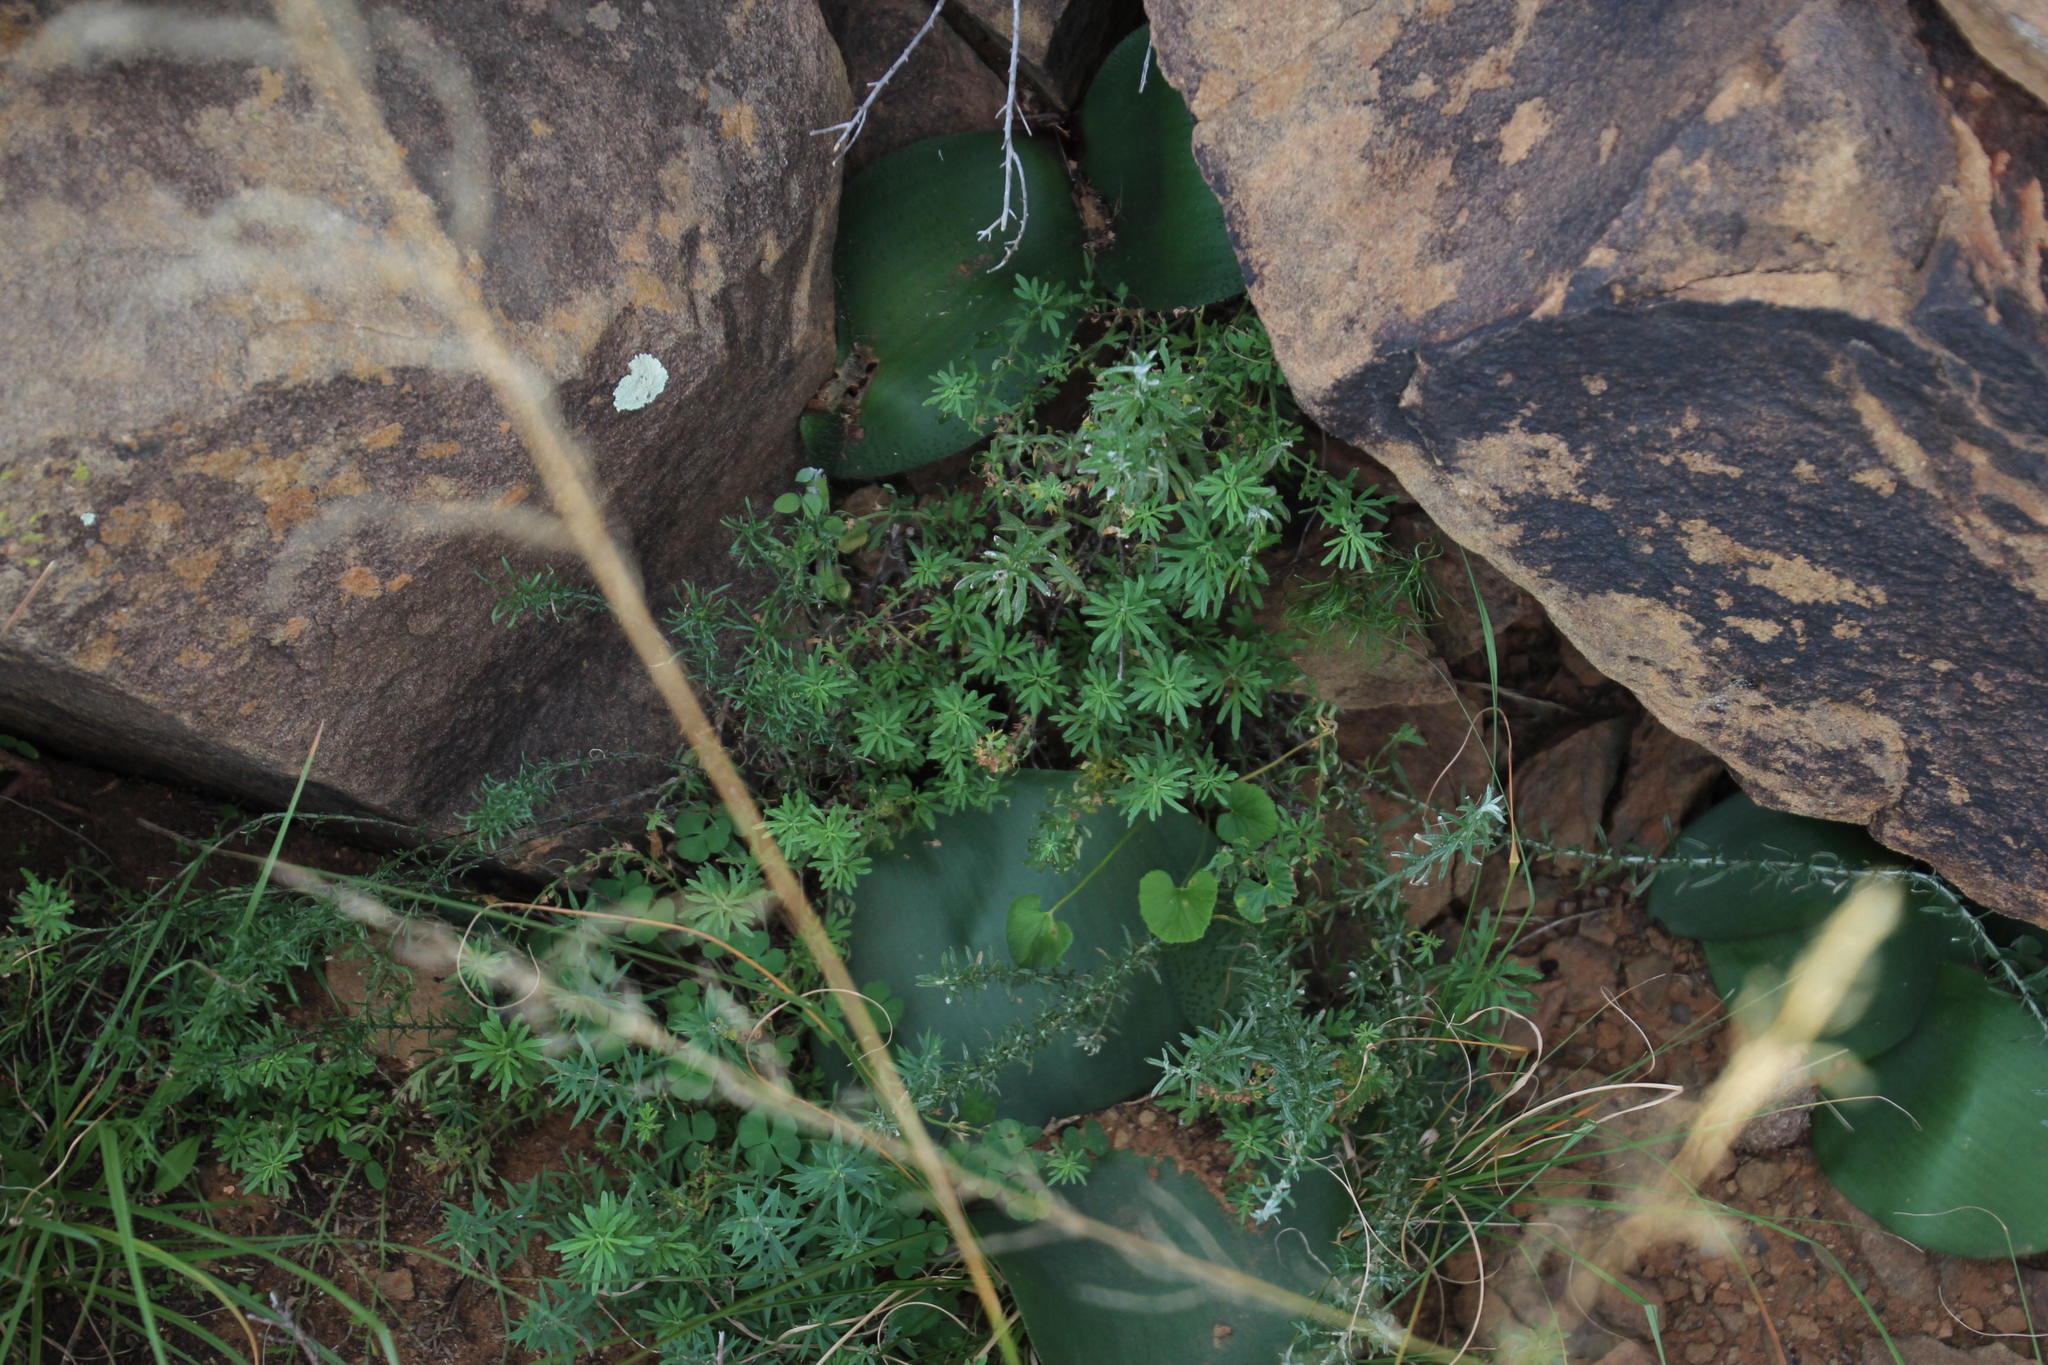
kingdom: Plantae
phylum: Tracheophyta
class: Liliopsida
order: Asparagales
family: Amaryllidaceae
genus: Haemanthus
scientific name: Haemanthus humilis
